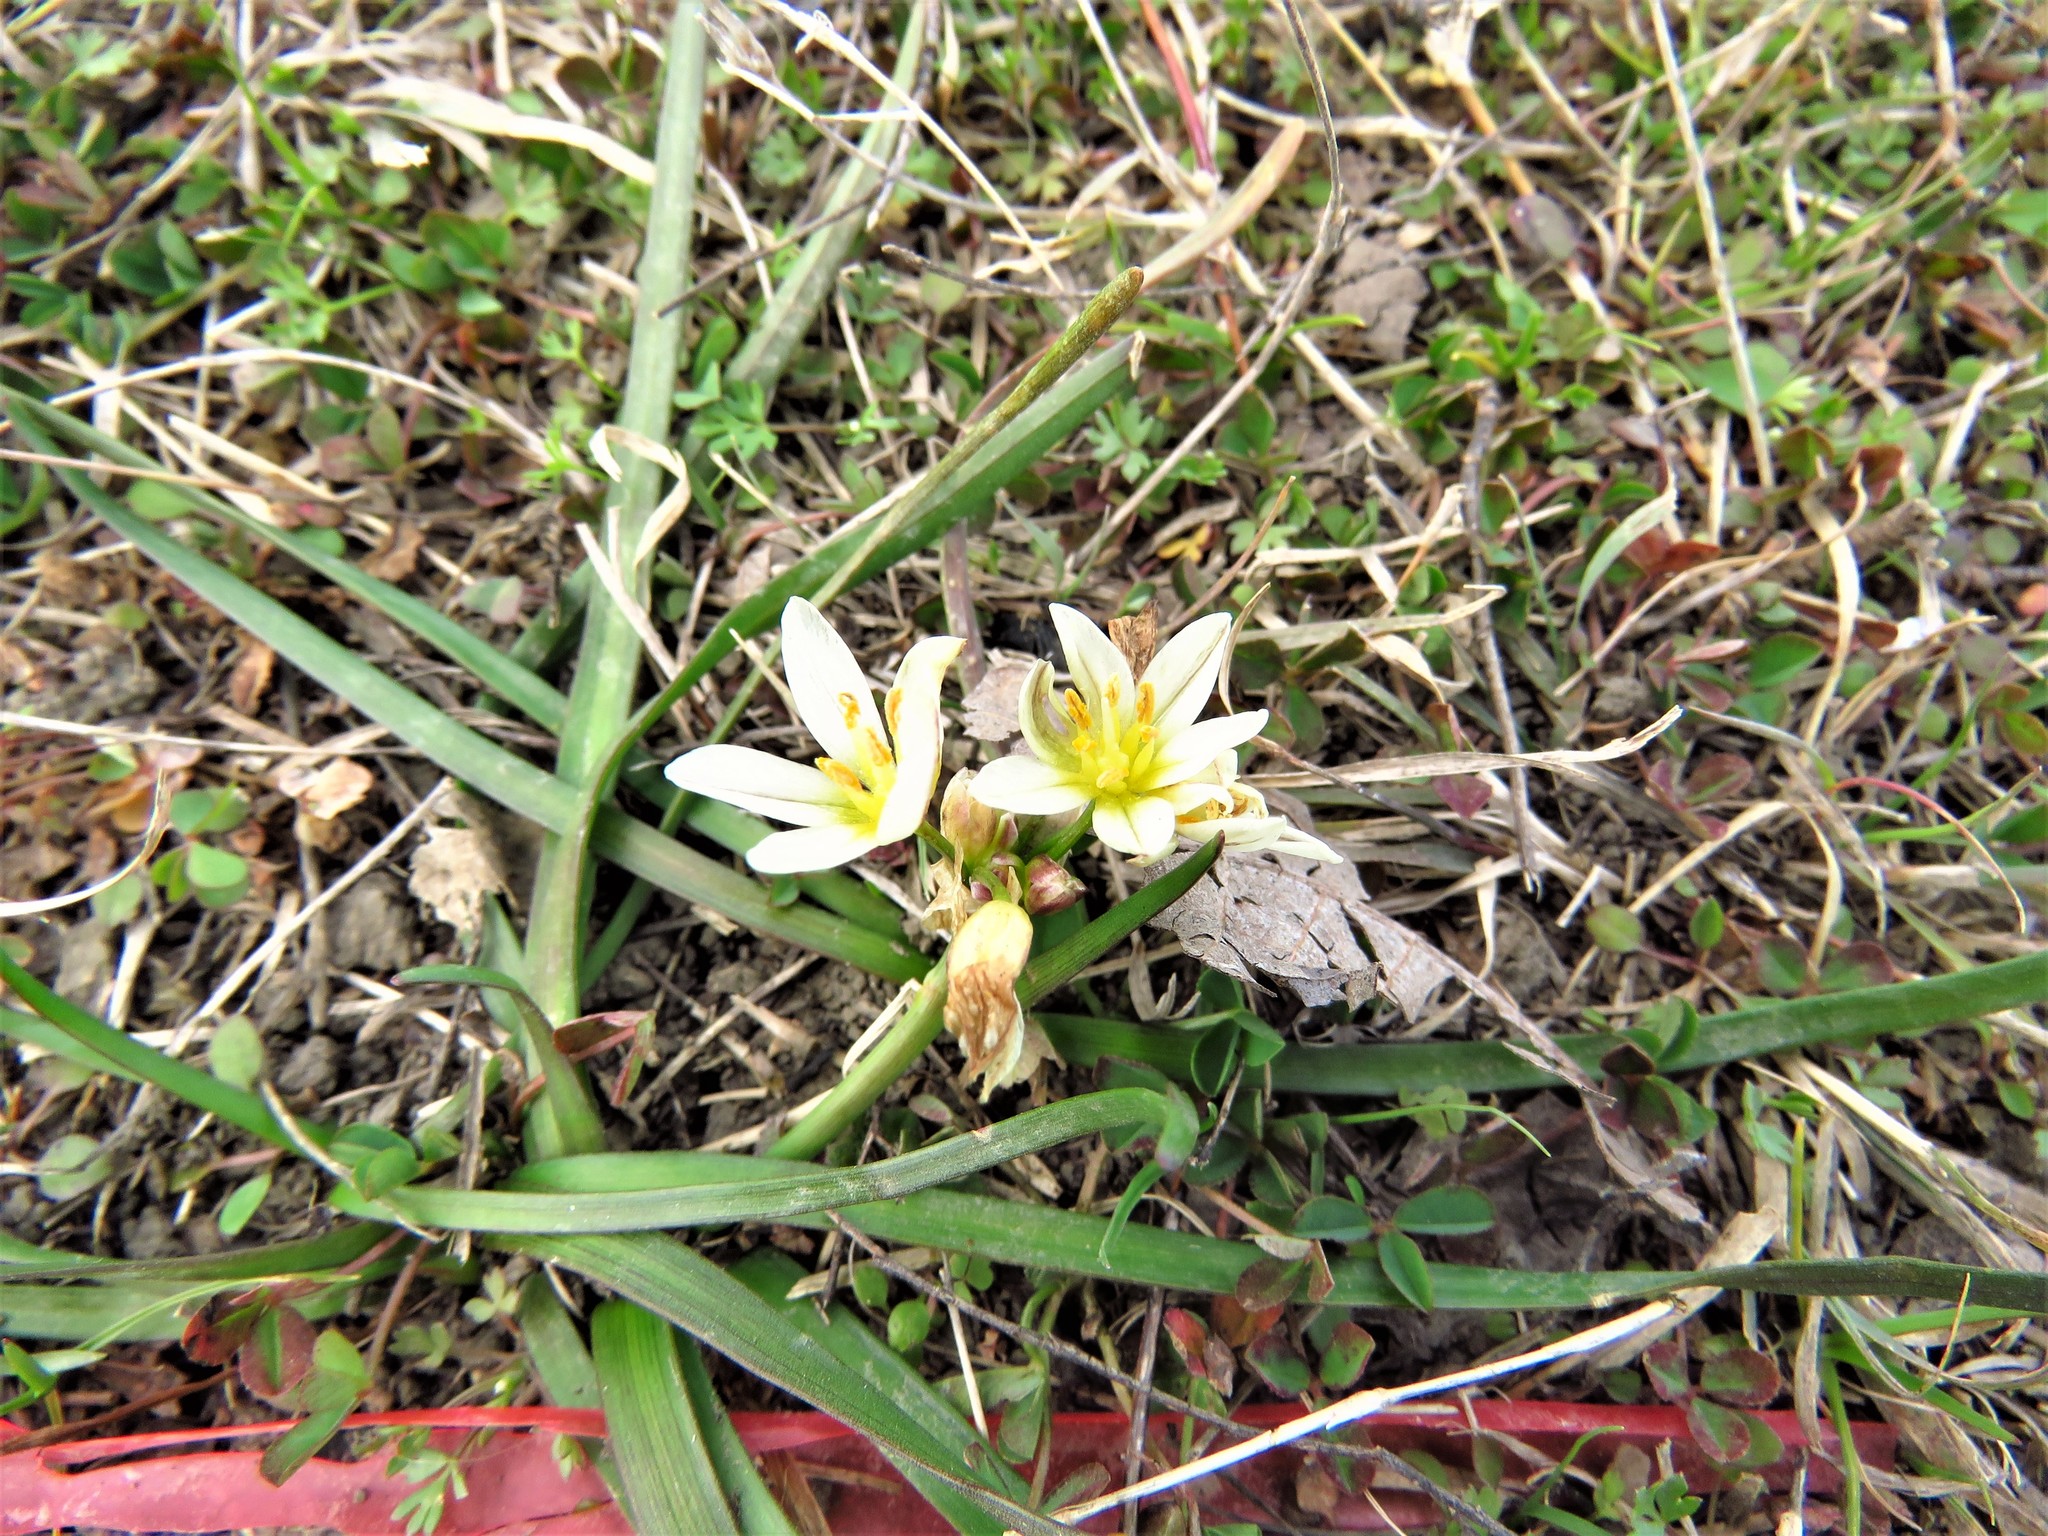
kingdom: Plantae
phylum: Tracheophyta
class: Liliopsida
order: Asparagales
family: Amaryllidaceae
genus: Nothoscordum
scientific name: Nothoscordum bivalve
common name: Crow-poison
